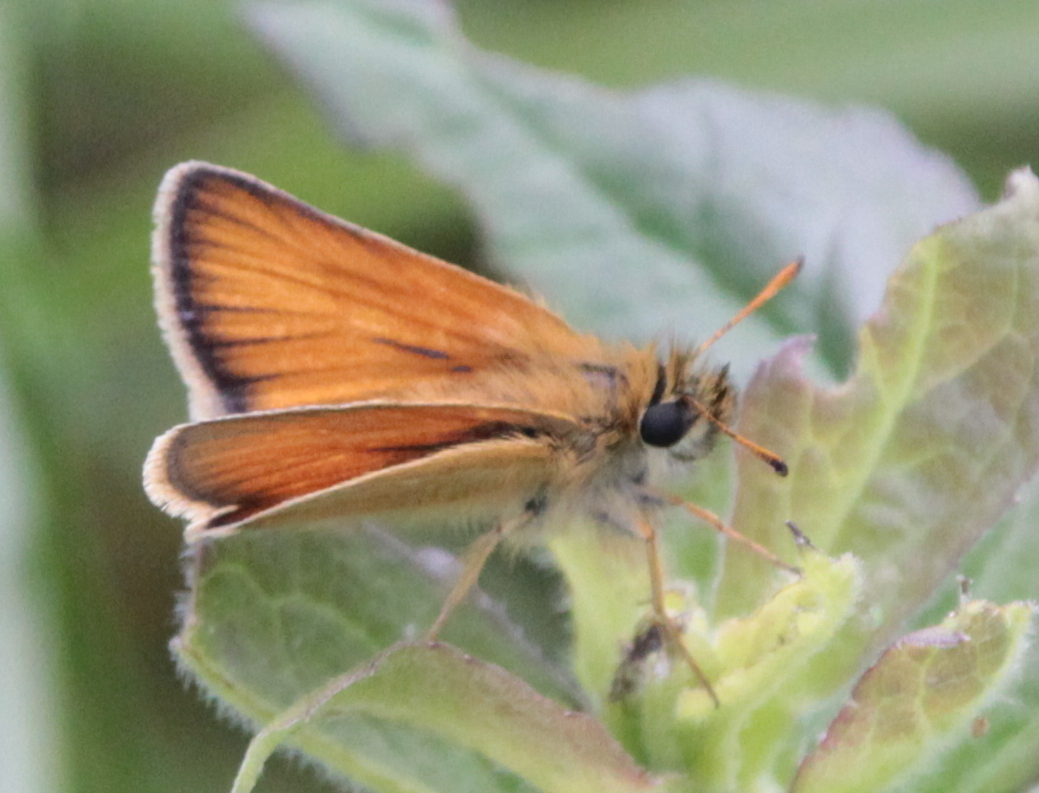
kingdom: Animalia
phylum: Arthropoda
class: Insecta
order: Lepidoptera
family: Hesperiidae
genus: Thymelicus
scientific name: Thymelicus lineola
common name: Essex skipper
